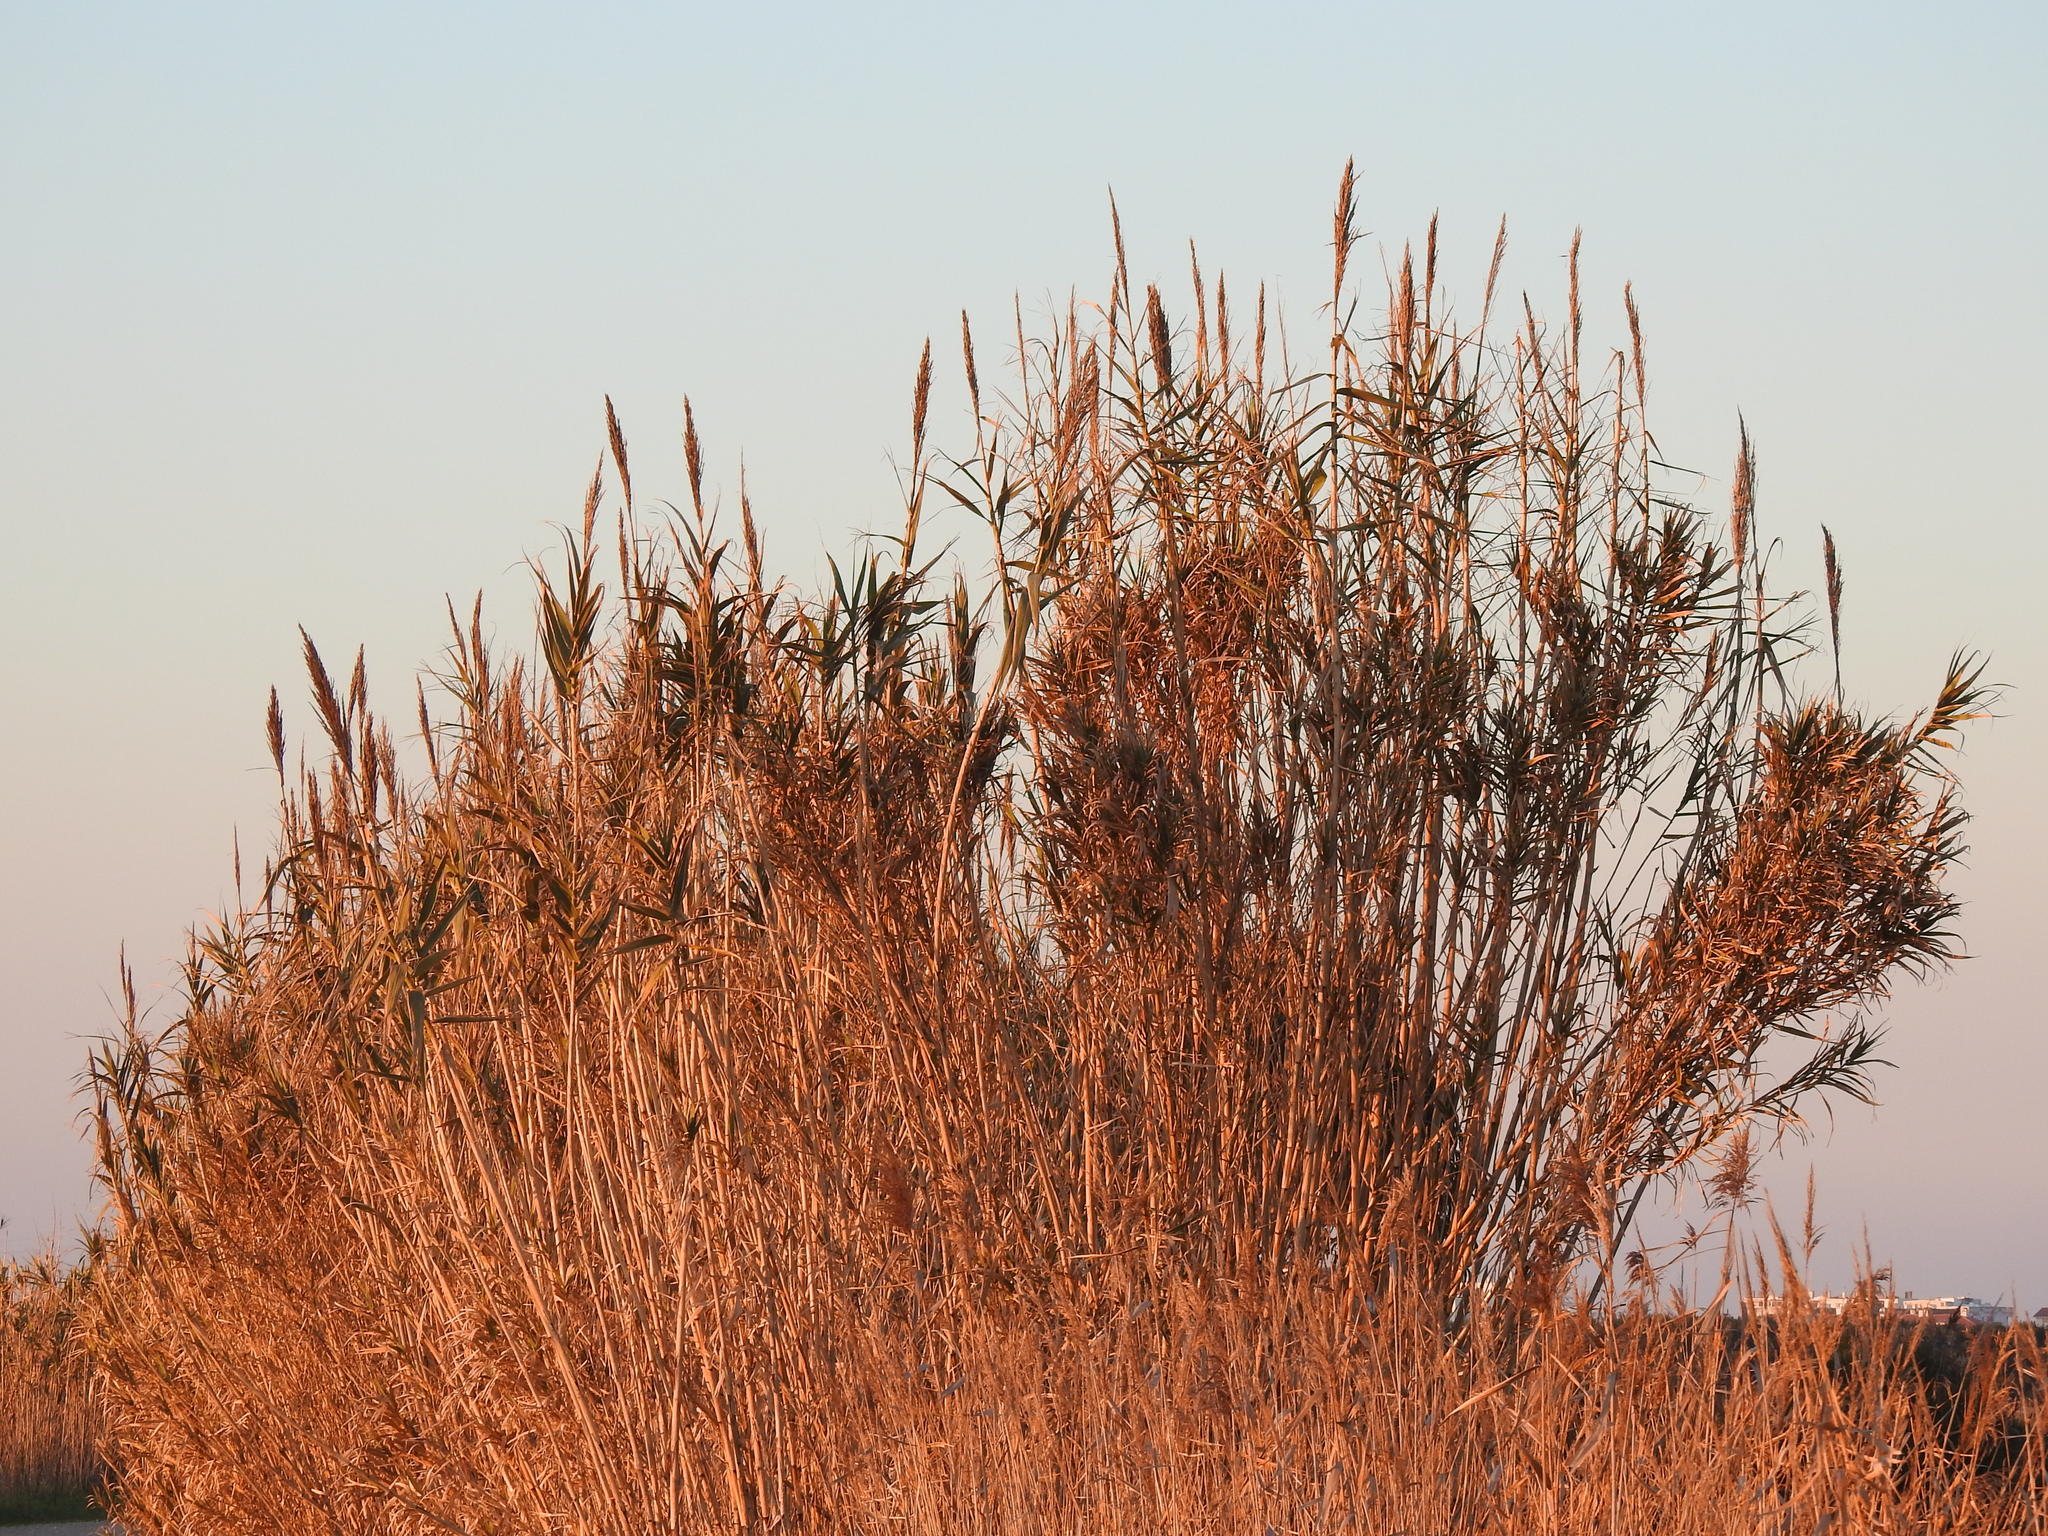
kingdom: Plantae
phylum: Tracheophyta
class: Liliopsida
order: Poales
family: Poaceae
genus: Arundo
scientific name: Arundo donax
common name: Giant reed
